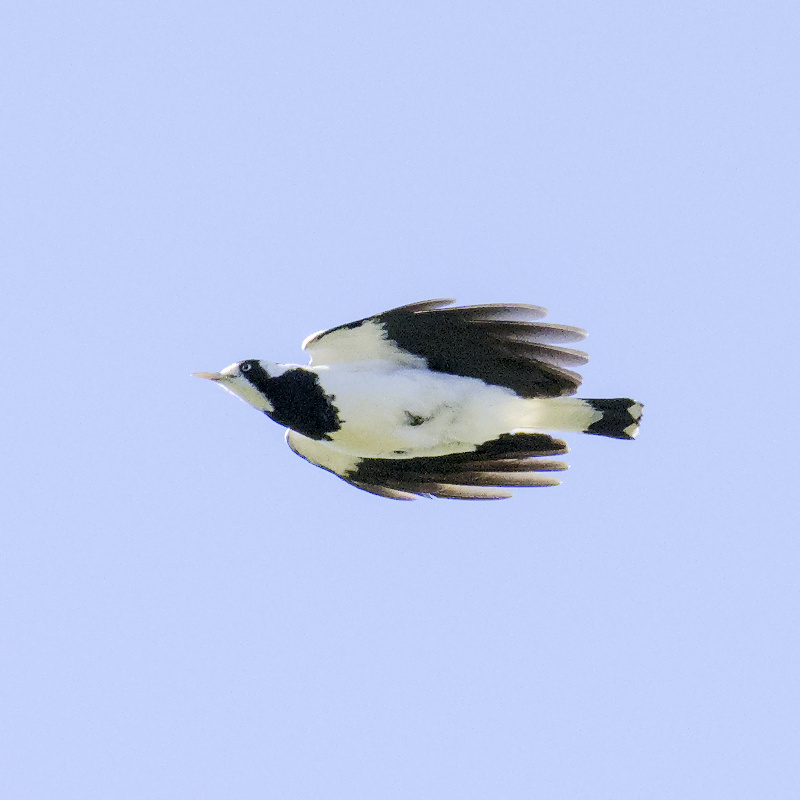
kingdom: Animalia
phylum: Chordata
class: Aves
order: Passeriformes
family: Monarchidae
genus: Grallina
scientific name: Grallina cyanoleuca
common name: Magpie-lark
